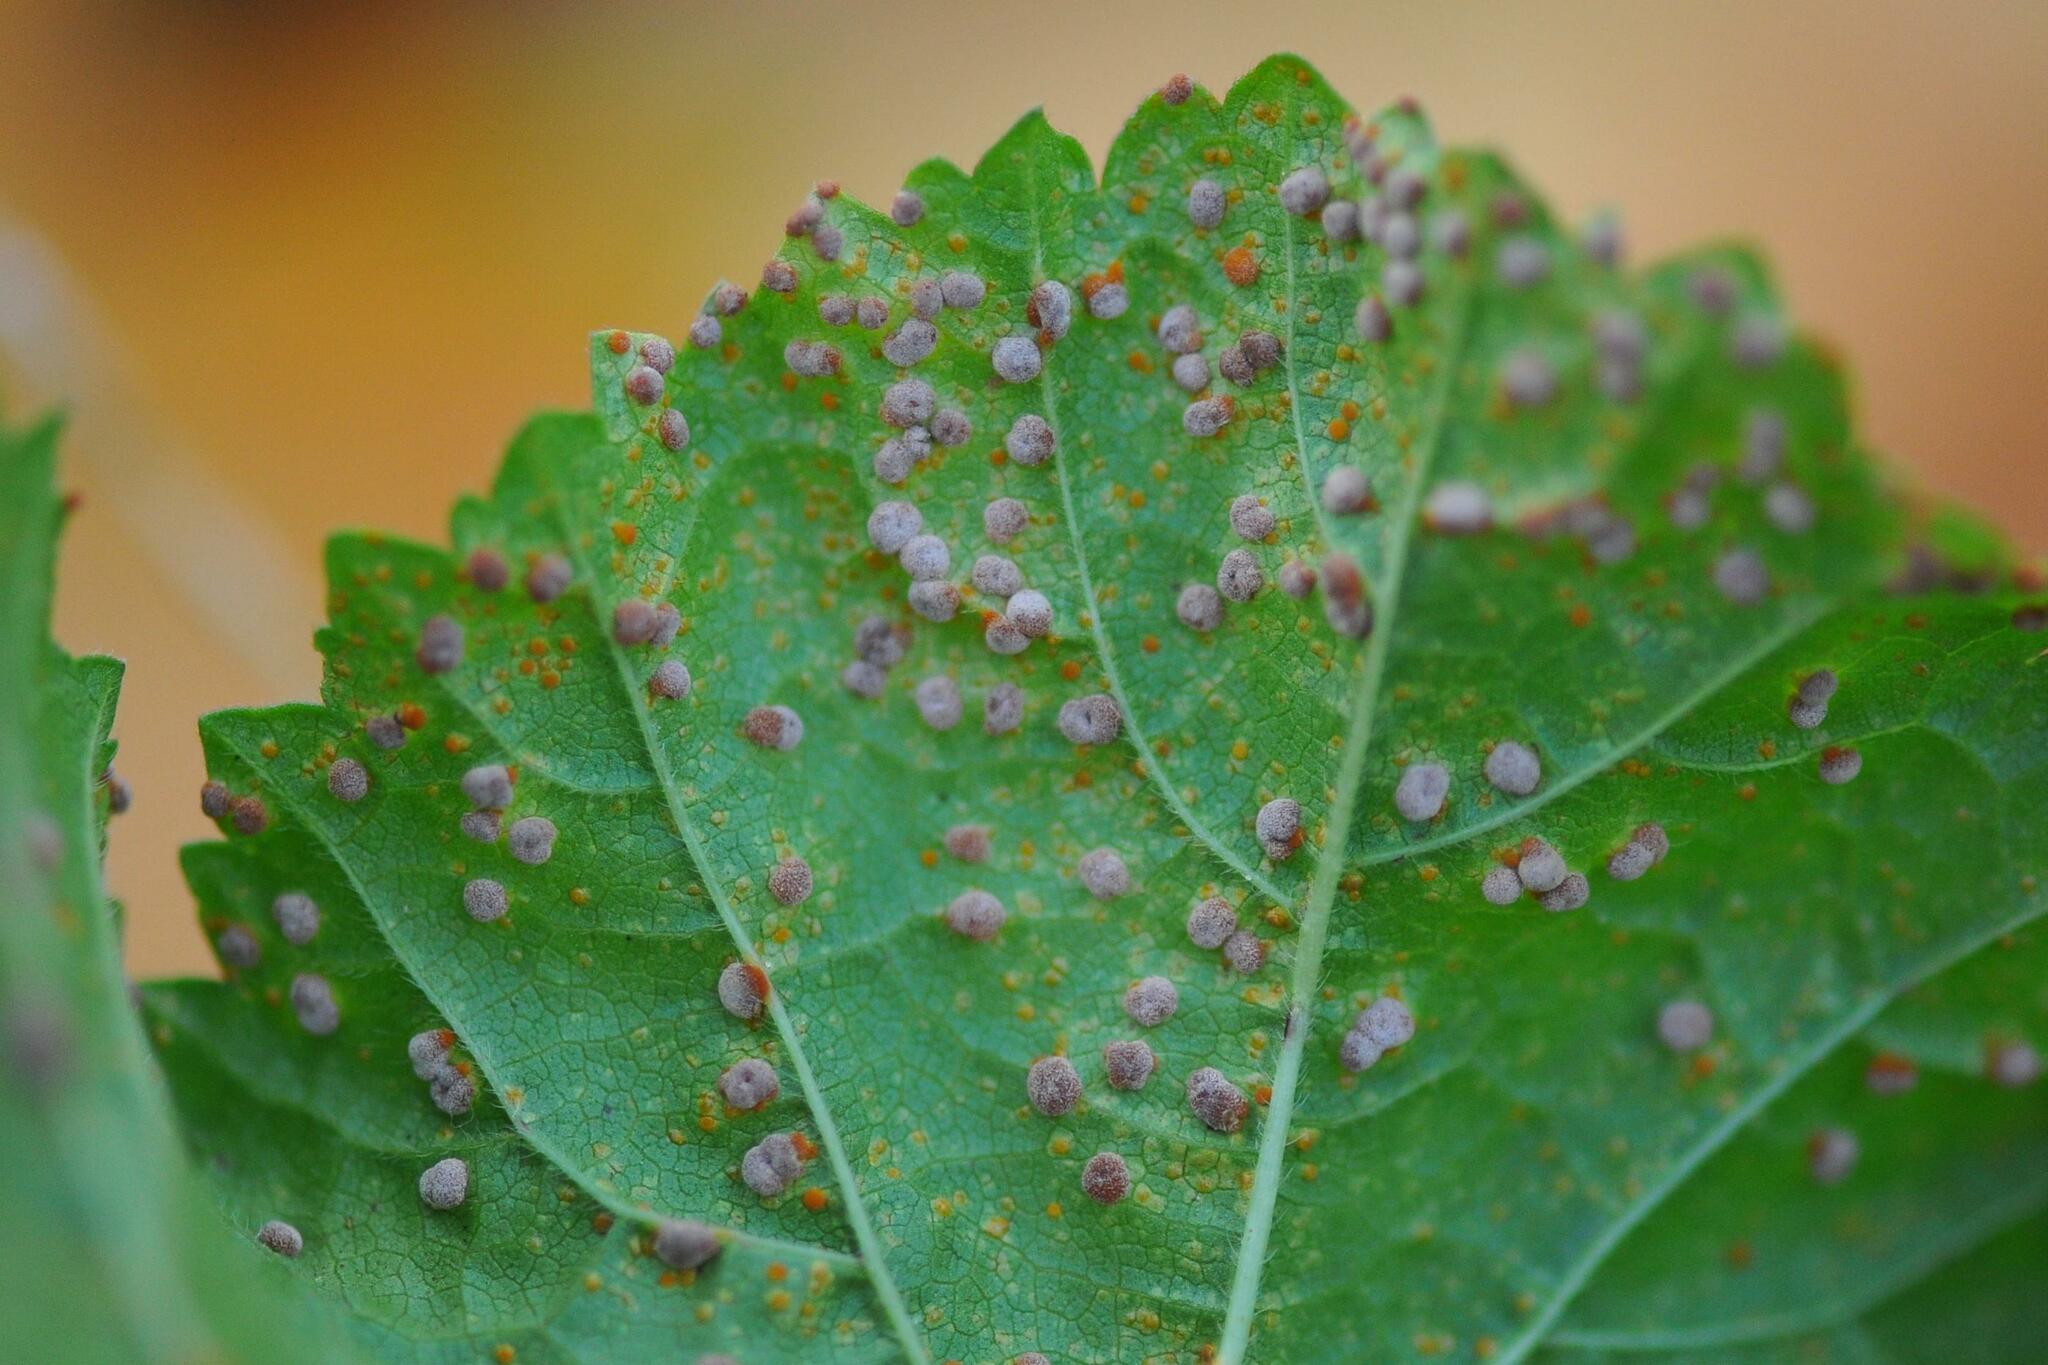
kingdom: Fungi
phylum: Basidiomycota
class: Pucciniomycetes
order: Pucciniales
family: Pucciniaceae
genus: Puccinia
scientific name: Puccinia malvacearum
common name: Hollyhock rust
